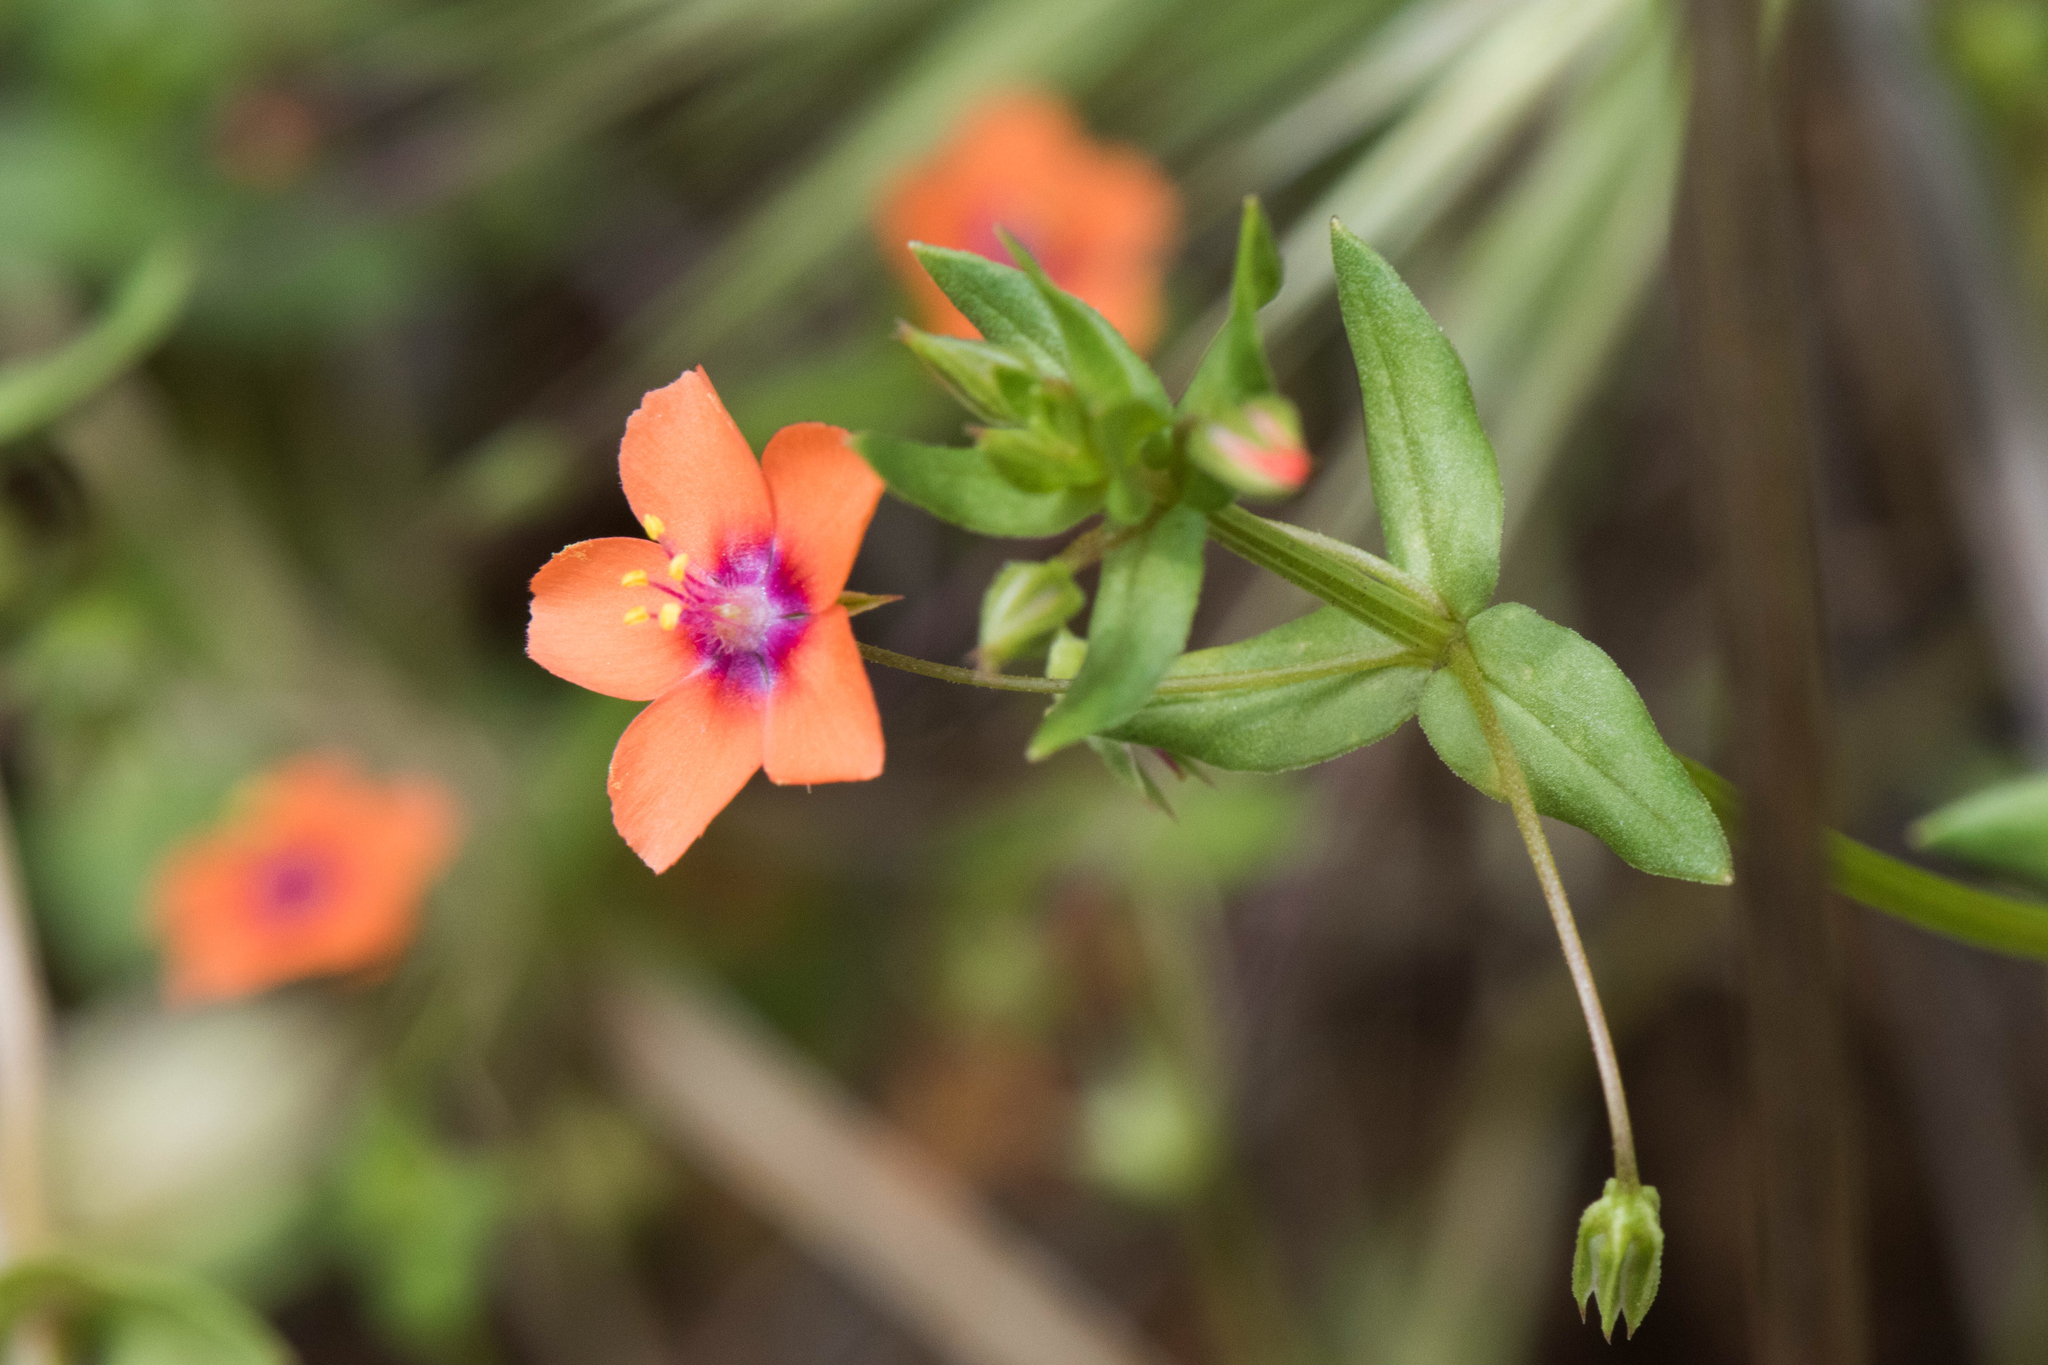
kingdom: Plantae
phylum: Tracheophyta
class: Magnoliopsida
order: Ericales
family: Primulaceae
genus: Lysimachia
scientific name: Lysimachia arvensis
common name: Scarlet pimpernel
